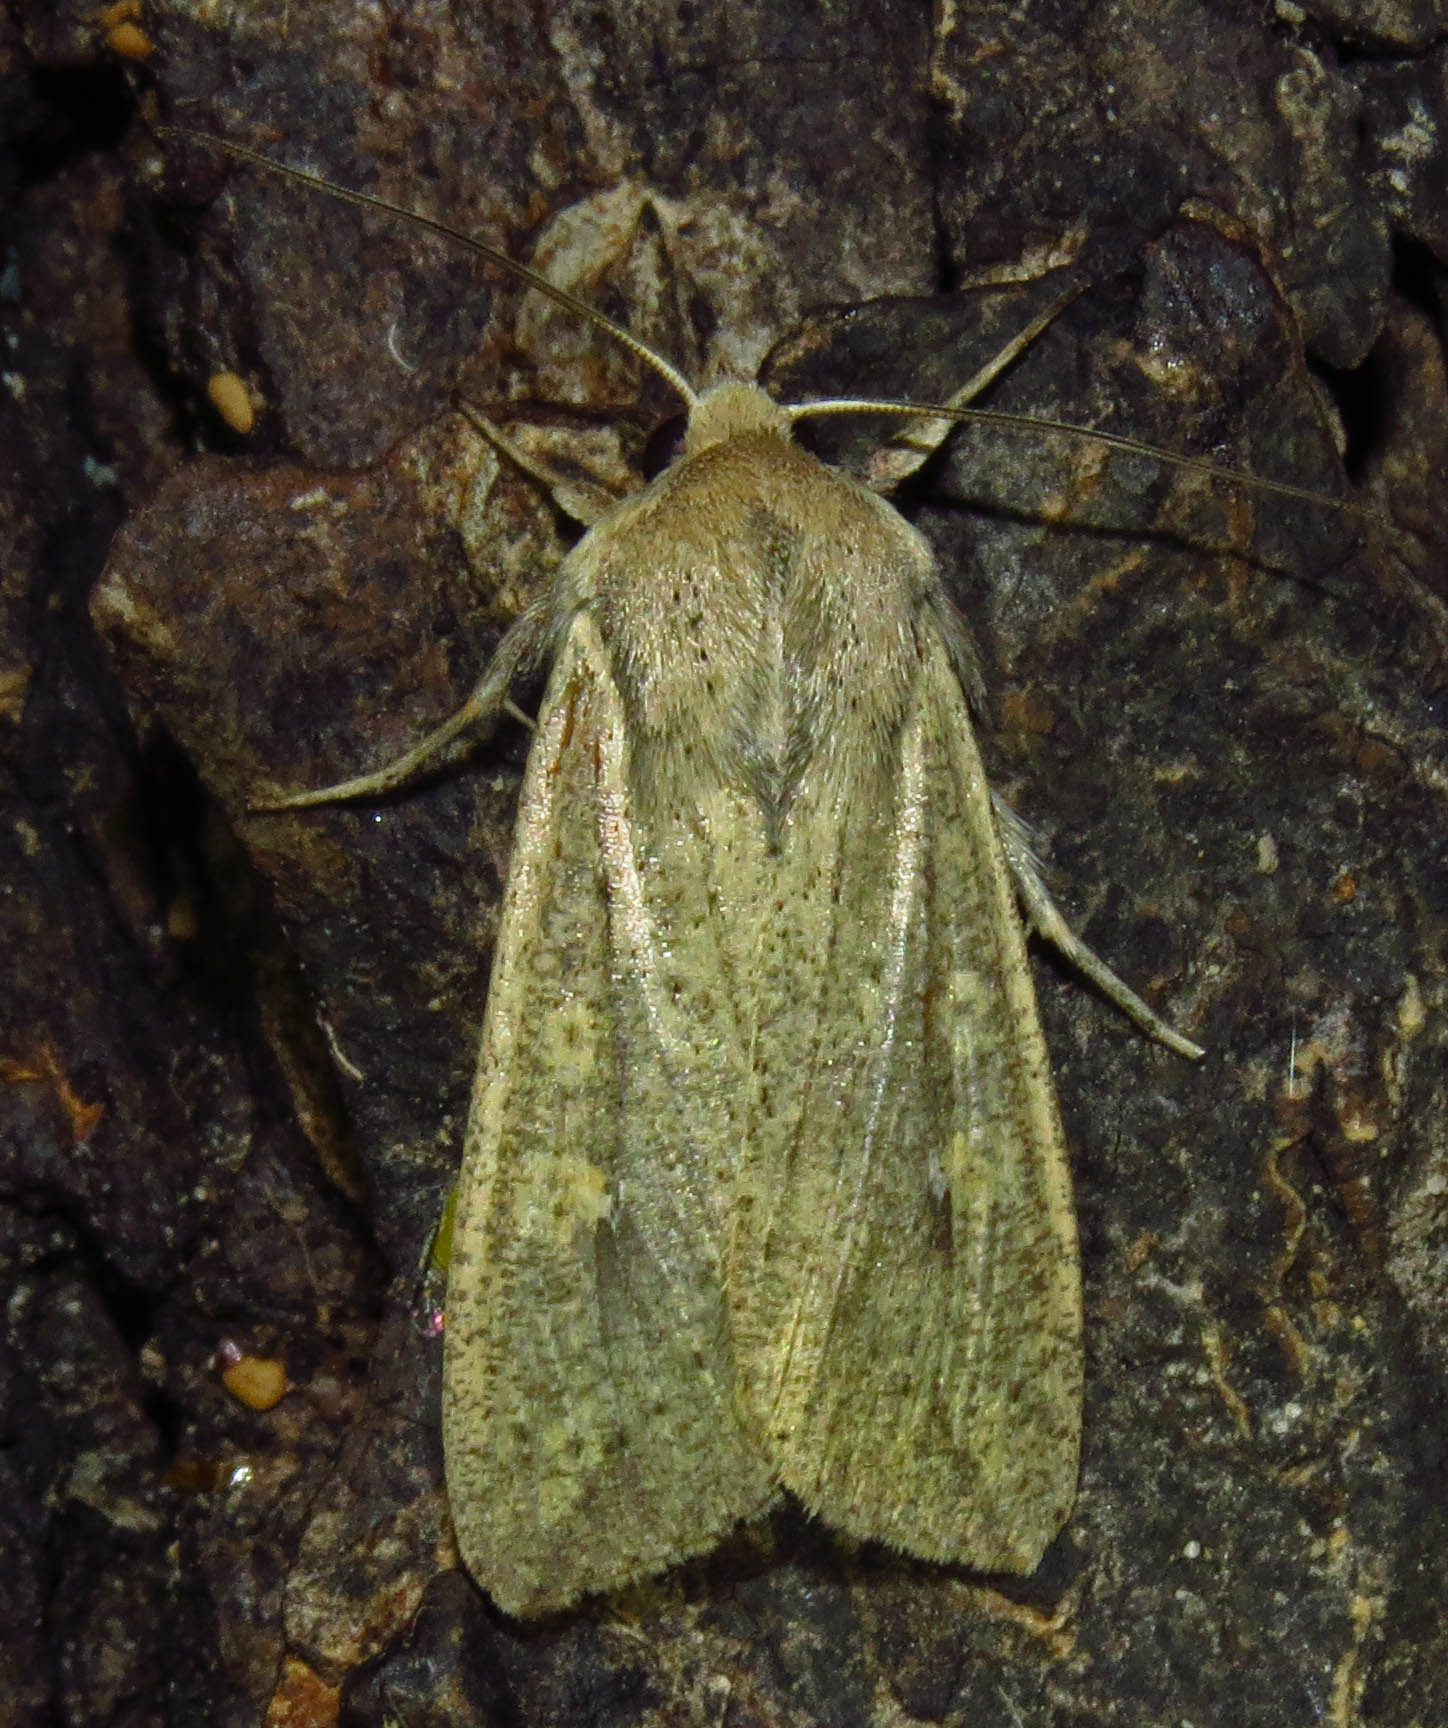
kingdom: Animalia
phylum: Arthropoda
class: Insecta
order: Lepidoptera
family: Noctuidae
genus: Mythimna
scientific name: Mythimna unipuncta
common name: White-speck
